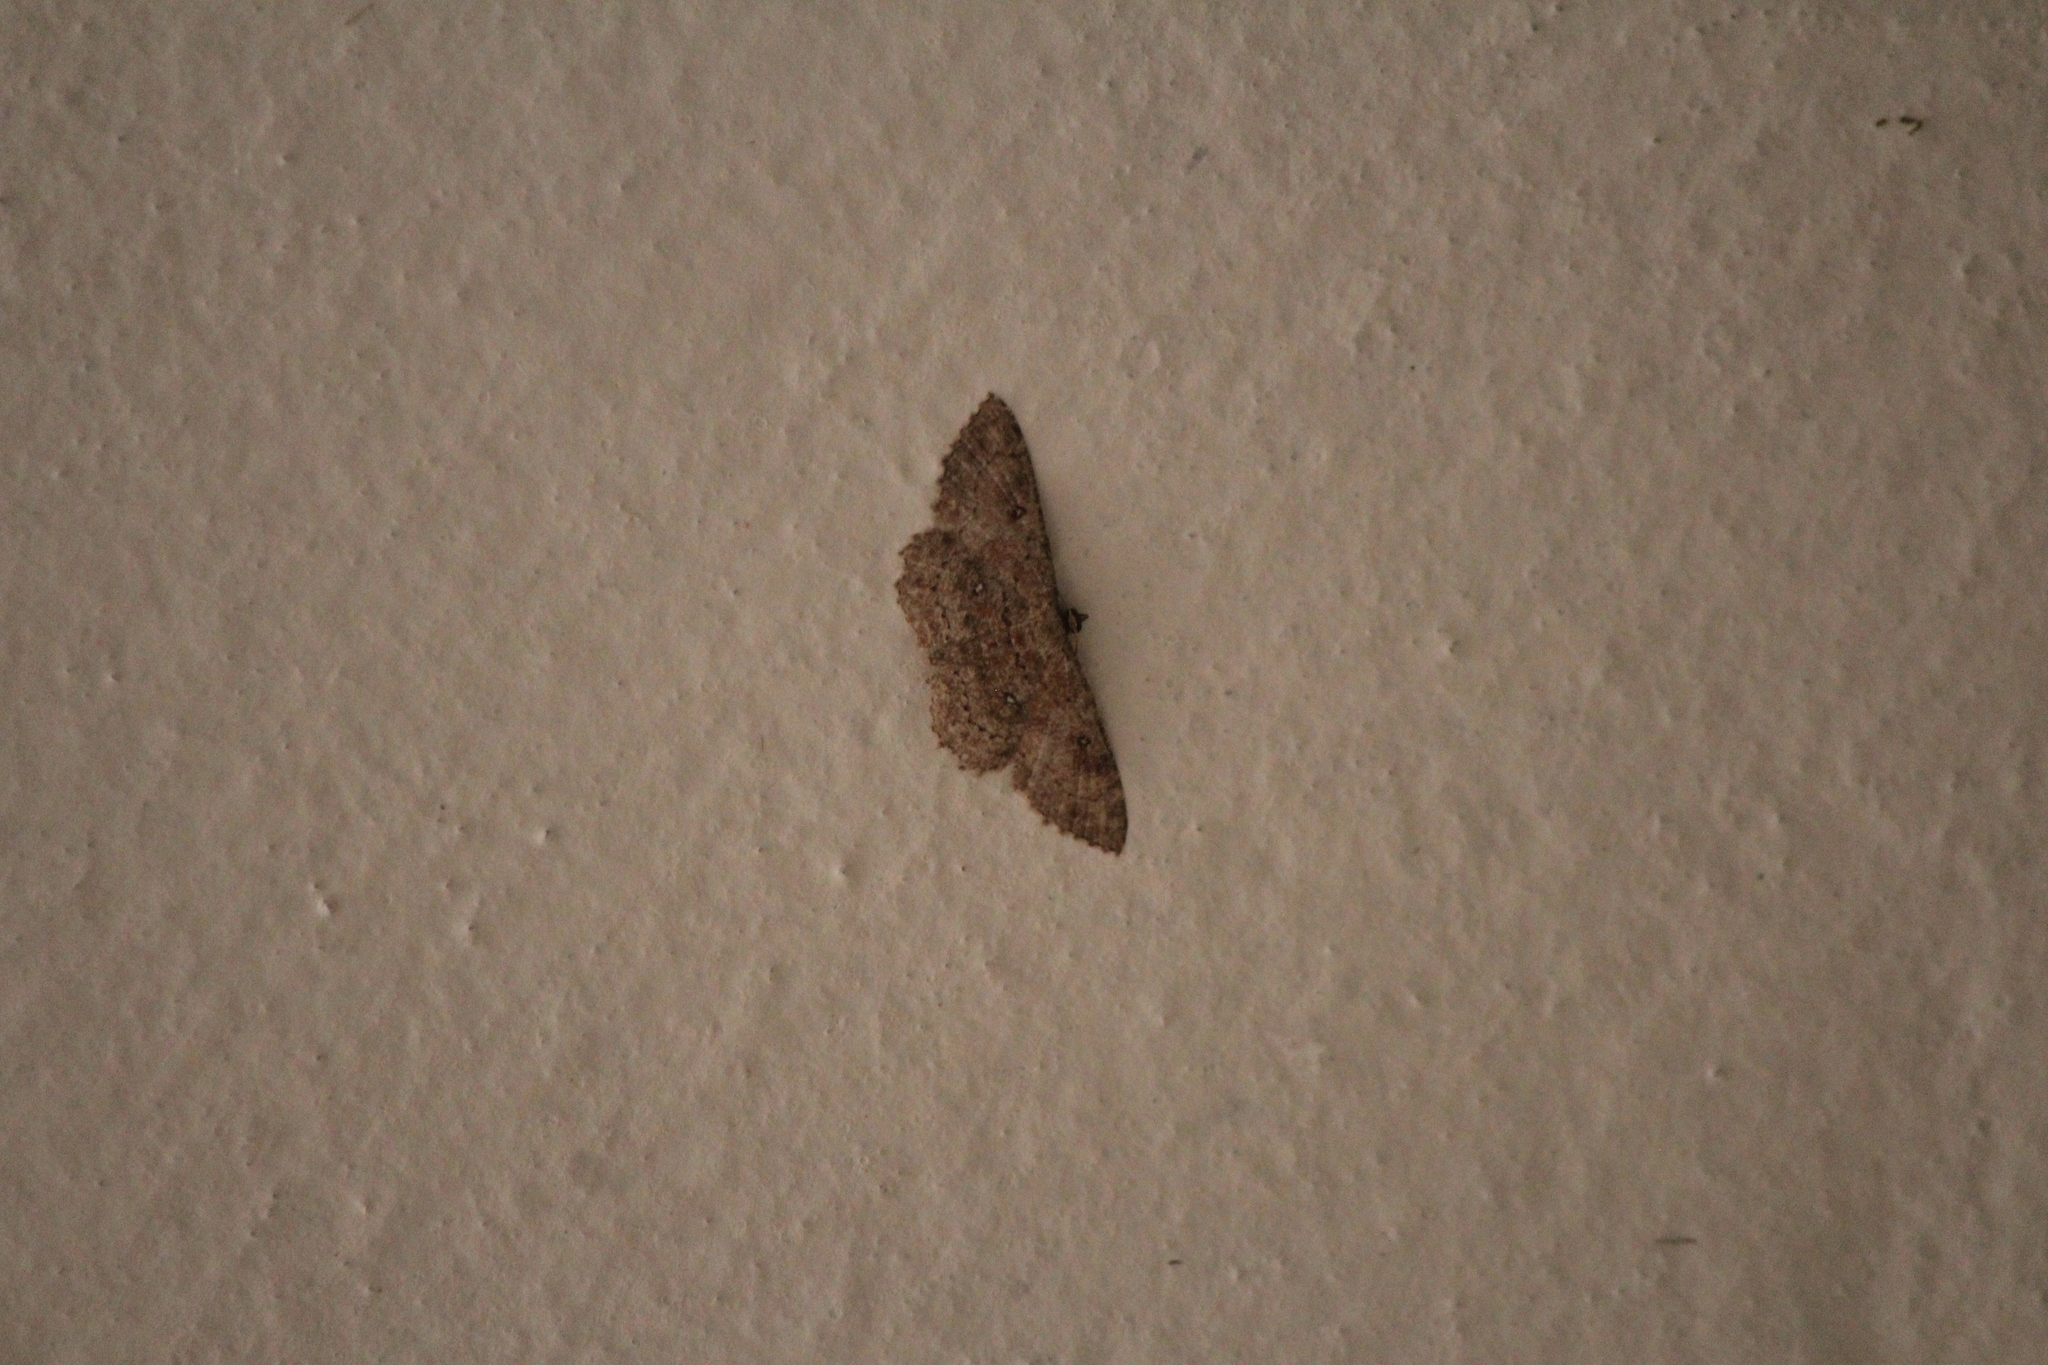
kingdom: Animalia
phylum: Arthropoda
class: Insecta
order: Lepidoptera
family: Geometridae
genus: Cyclophora
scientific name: Cyclophora nanaria
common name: Cankerworm
